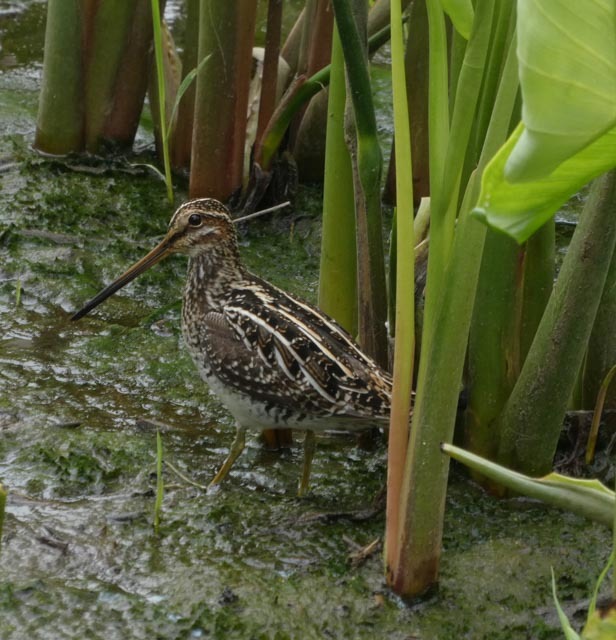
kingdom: Animalia
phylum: Chordata
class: Aves
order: Charadriiformes
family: Scolopacidae
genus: Gallinago
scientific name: Gallinago delicata
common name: Wilson's snipe
